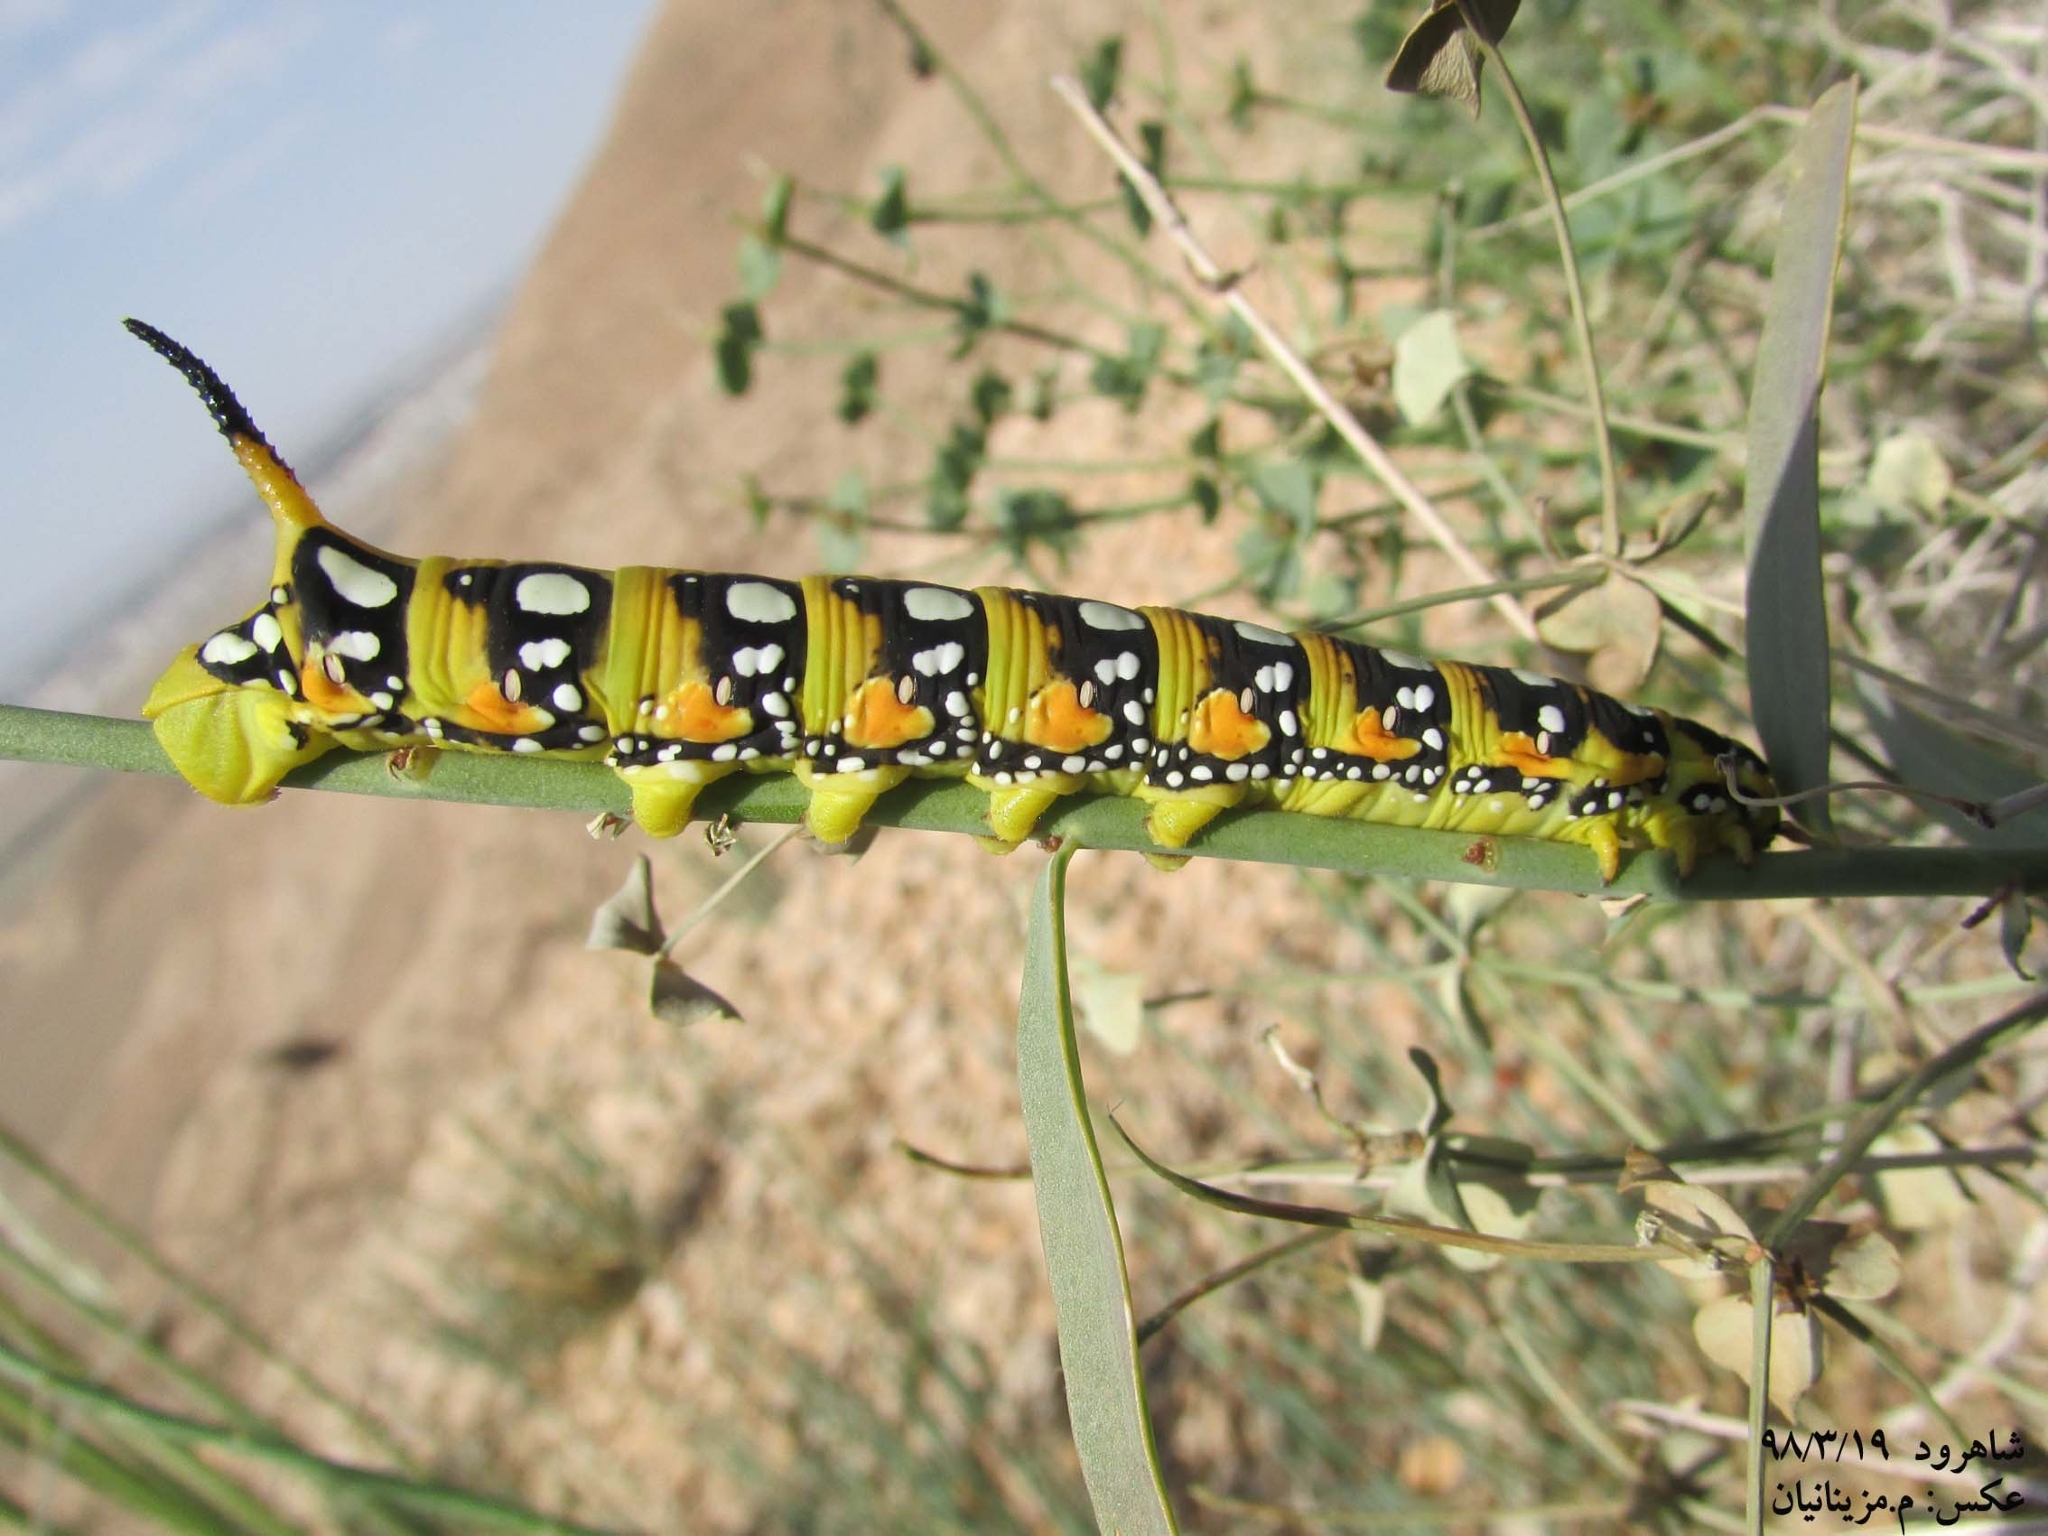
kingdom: Animalia
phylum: Arthropoda
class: Insecta
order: Lepidoptera
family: Sphingidae
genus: Hyles
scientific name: Hyles euphorbiae
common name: Spurge hawk-moth
